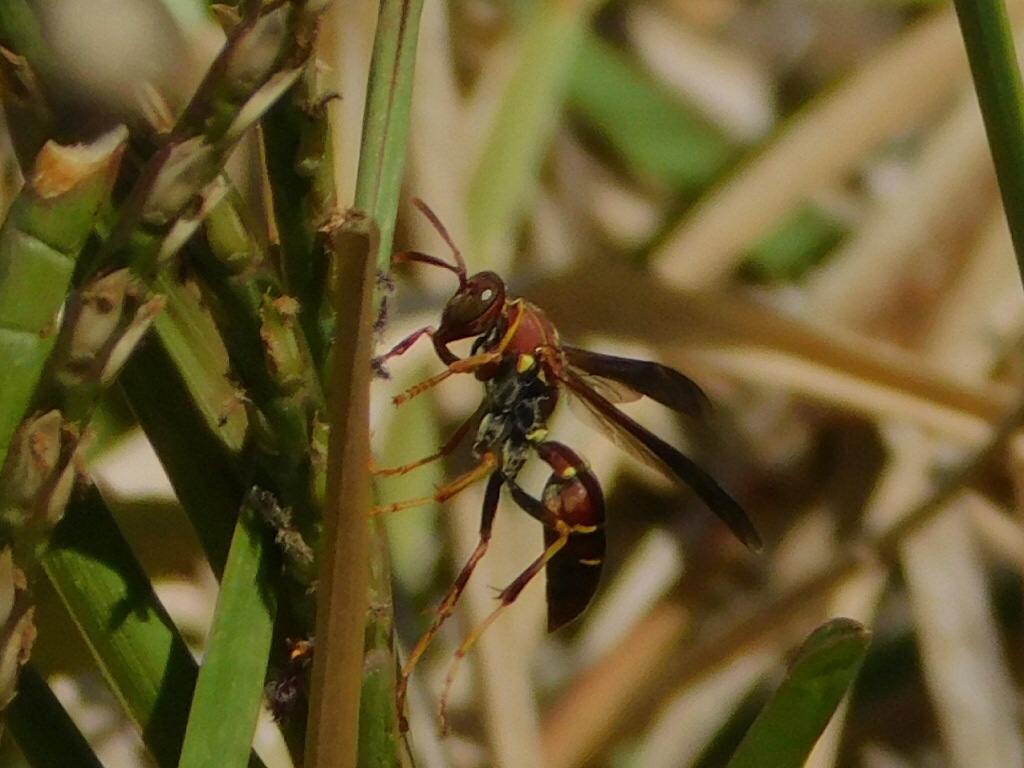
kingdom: Animalia
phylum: Arthropoda
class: Insecta
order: Hymenoptera
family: Eumenidae
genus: Polistes
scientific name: Polistes dorsalis
